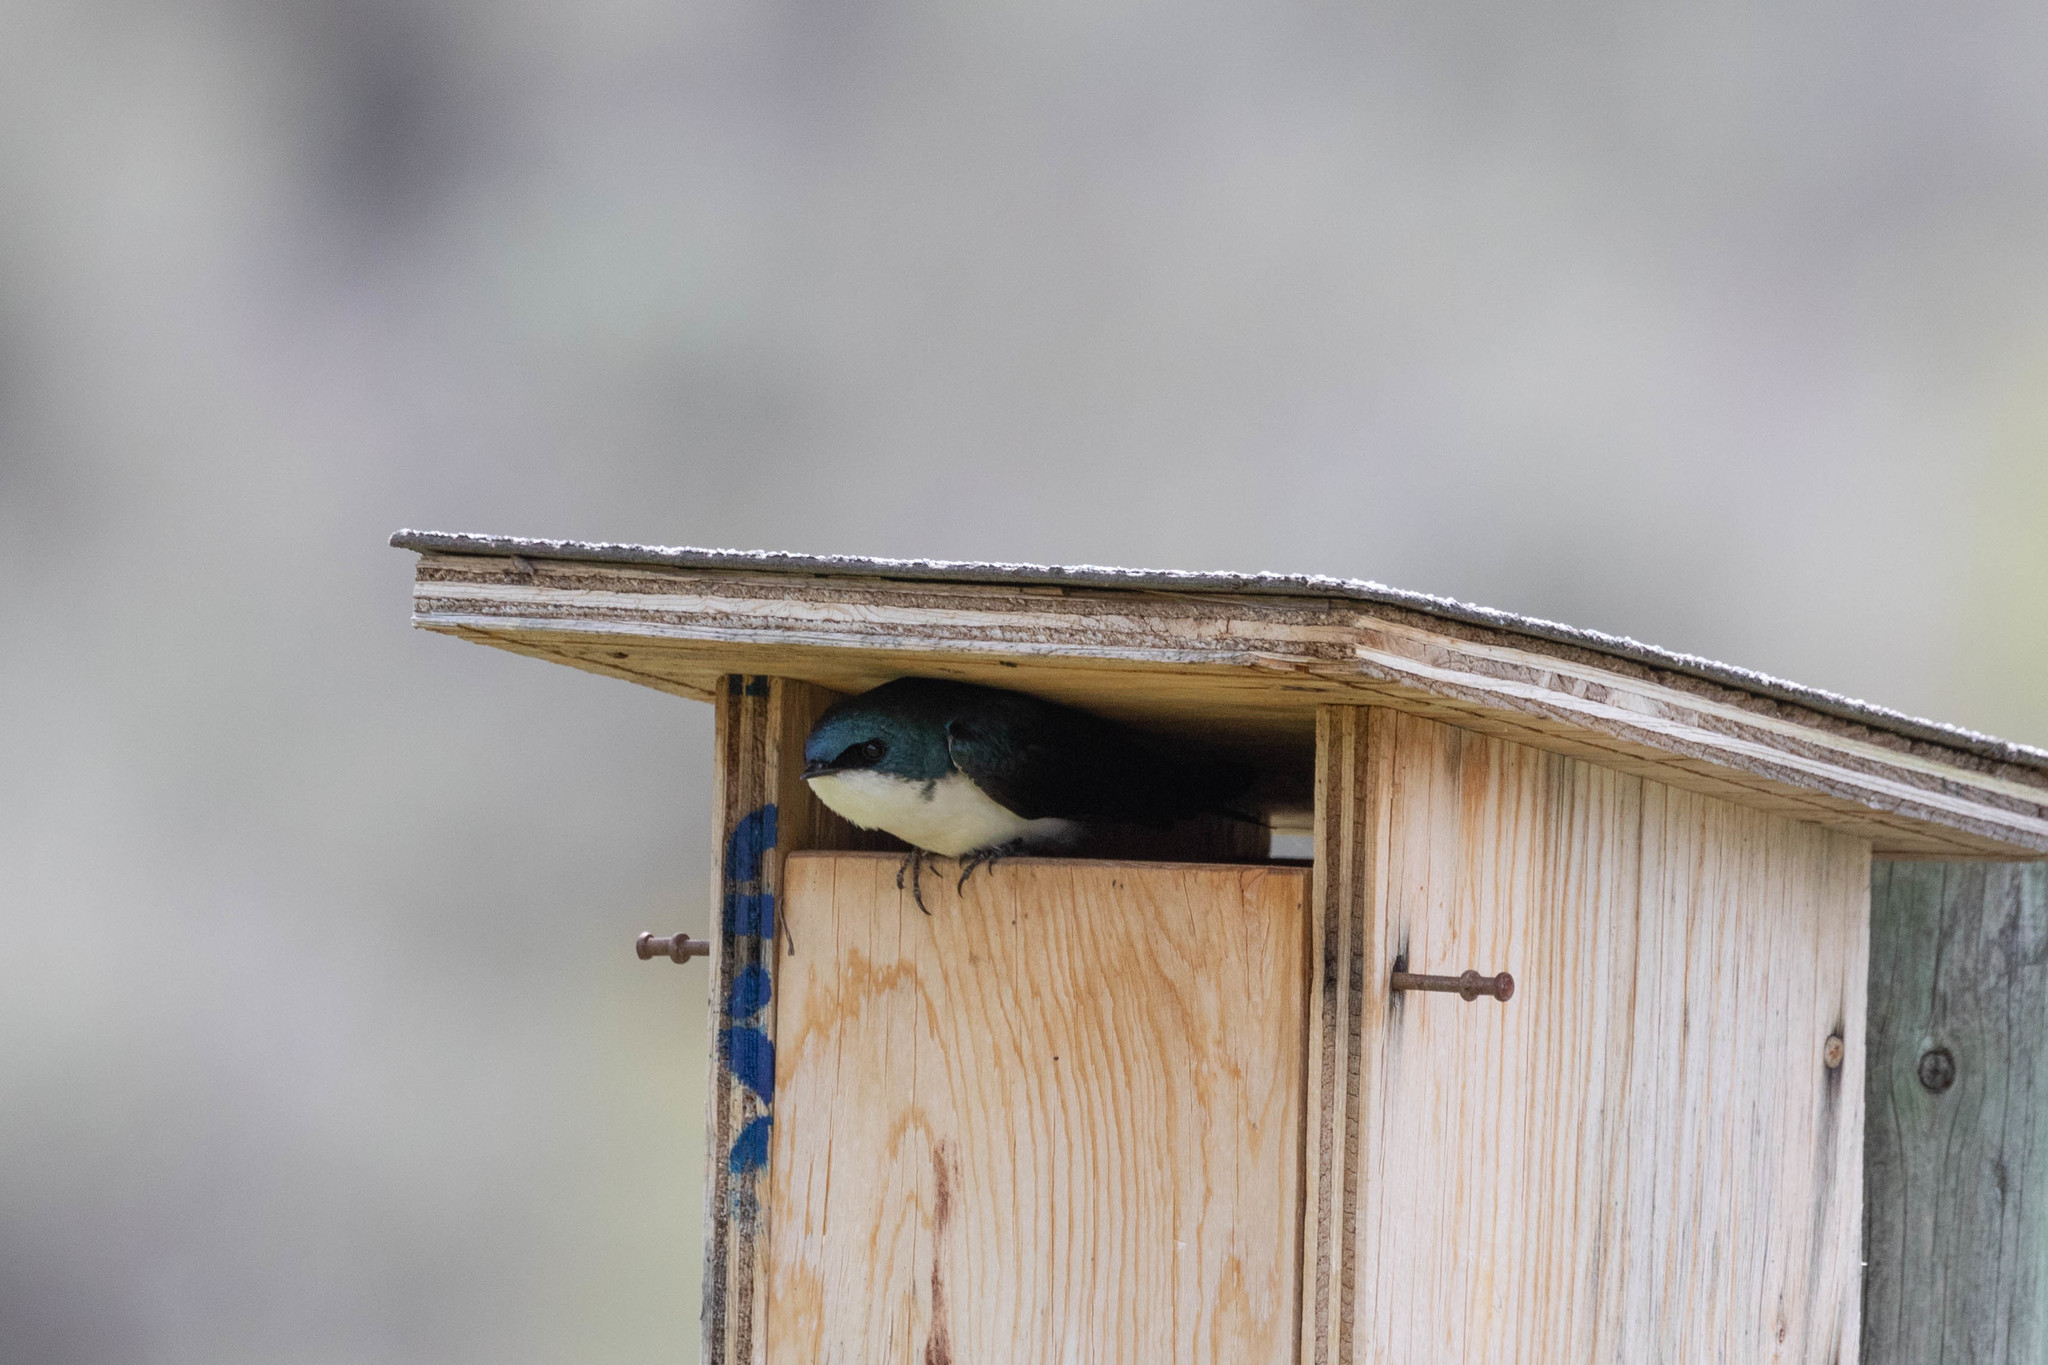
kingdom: Animalia
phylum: Chordata
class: Aves
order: Passeriformes
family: Hirundinidae
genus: Tachycineta
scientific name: Tachycineta bicolor
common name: Tree swallow
